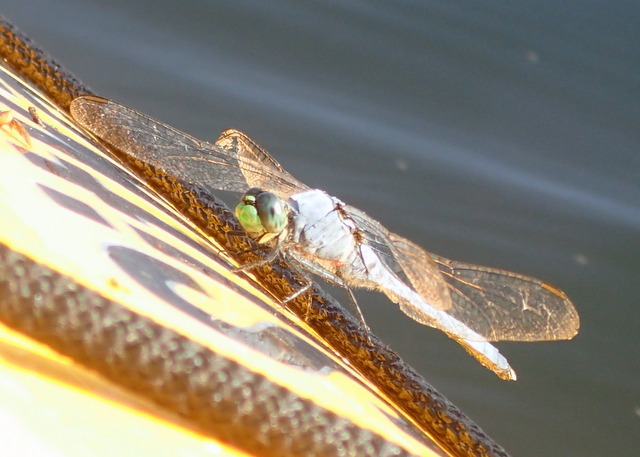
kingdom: Animalia
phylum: Arthropoda
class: Insecta
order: Odonata
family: Libellulidae
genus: Erythemis
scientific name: Erythemis simplicicollis
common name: Eastern pondhawk
